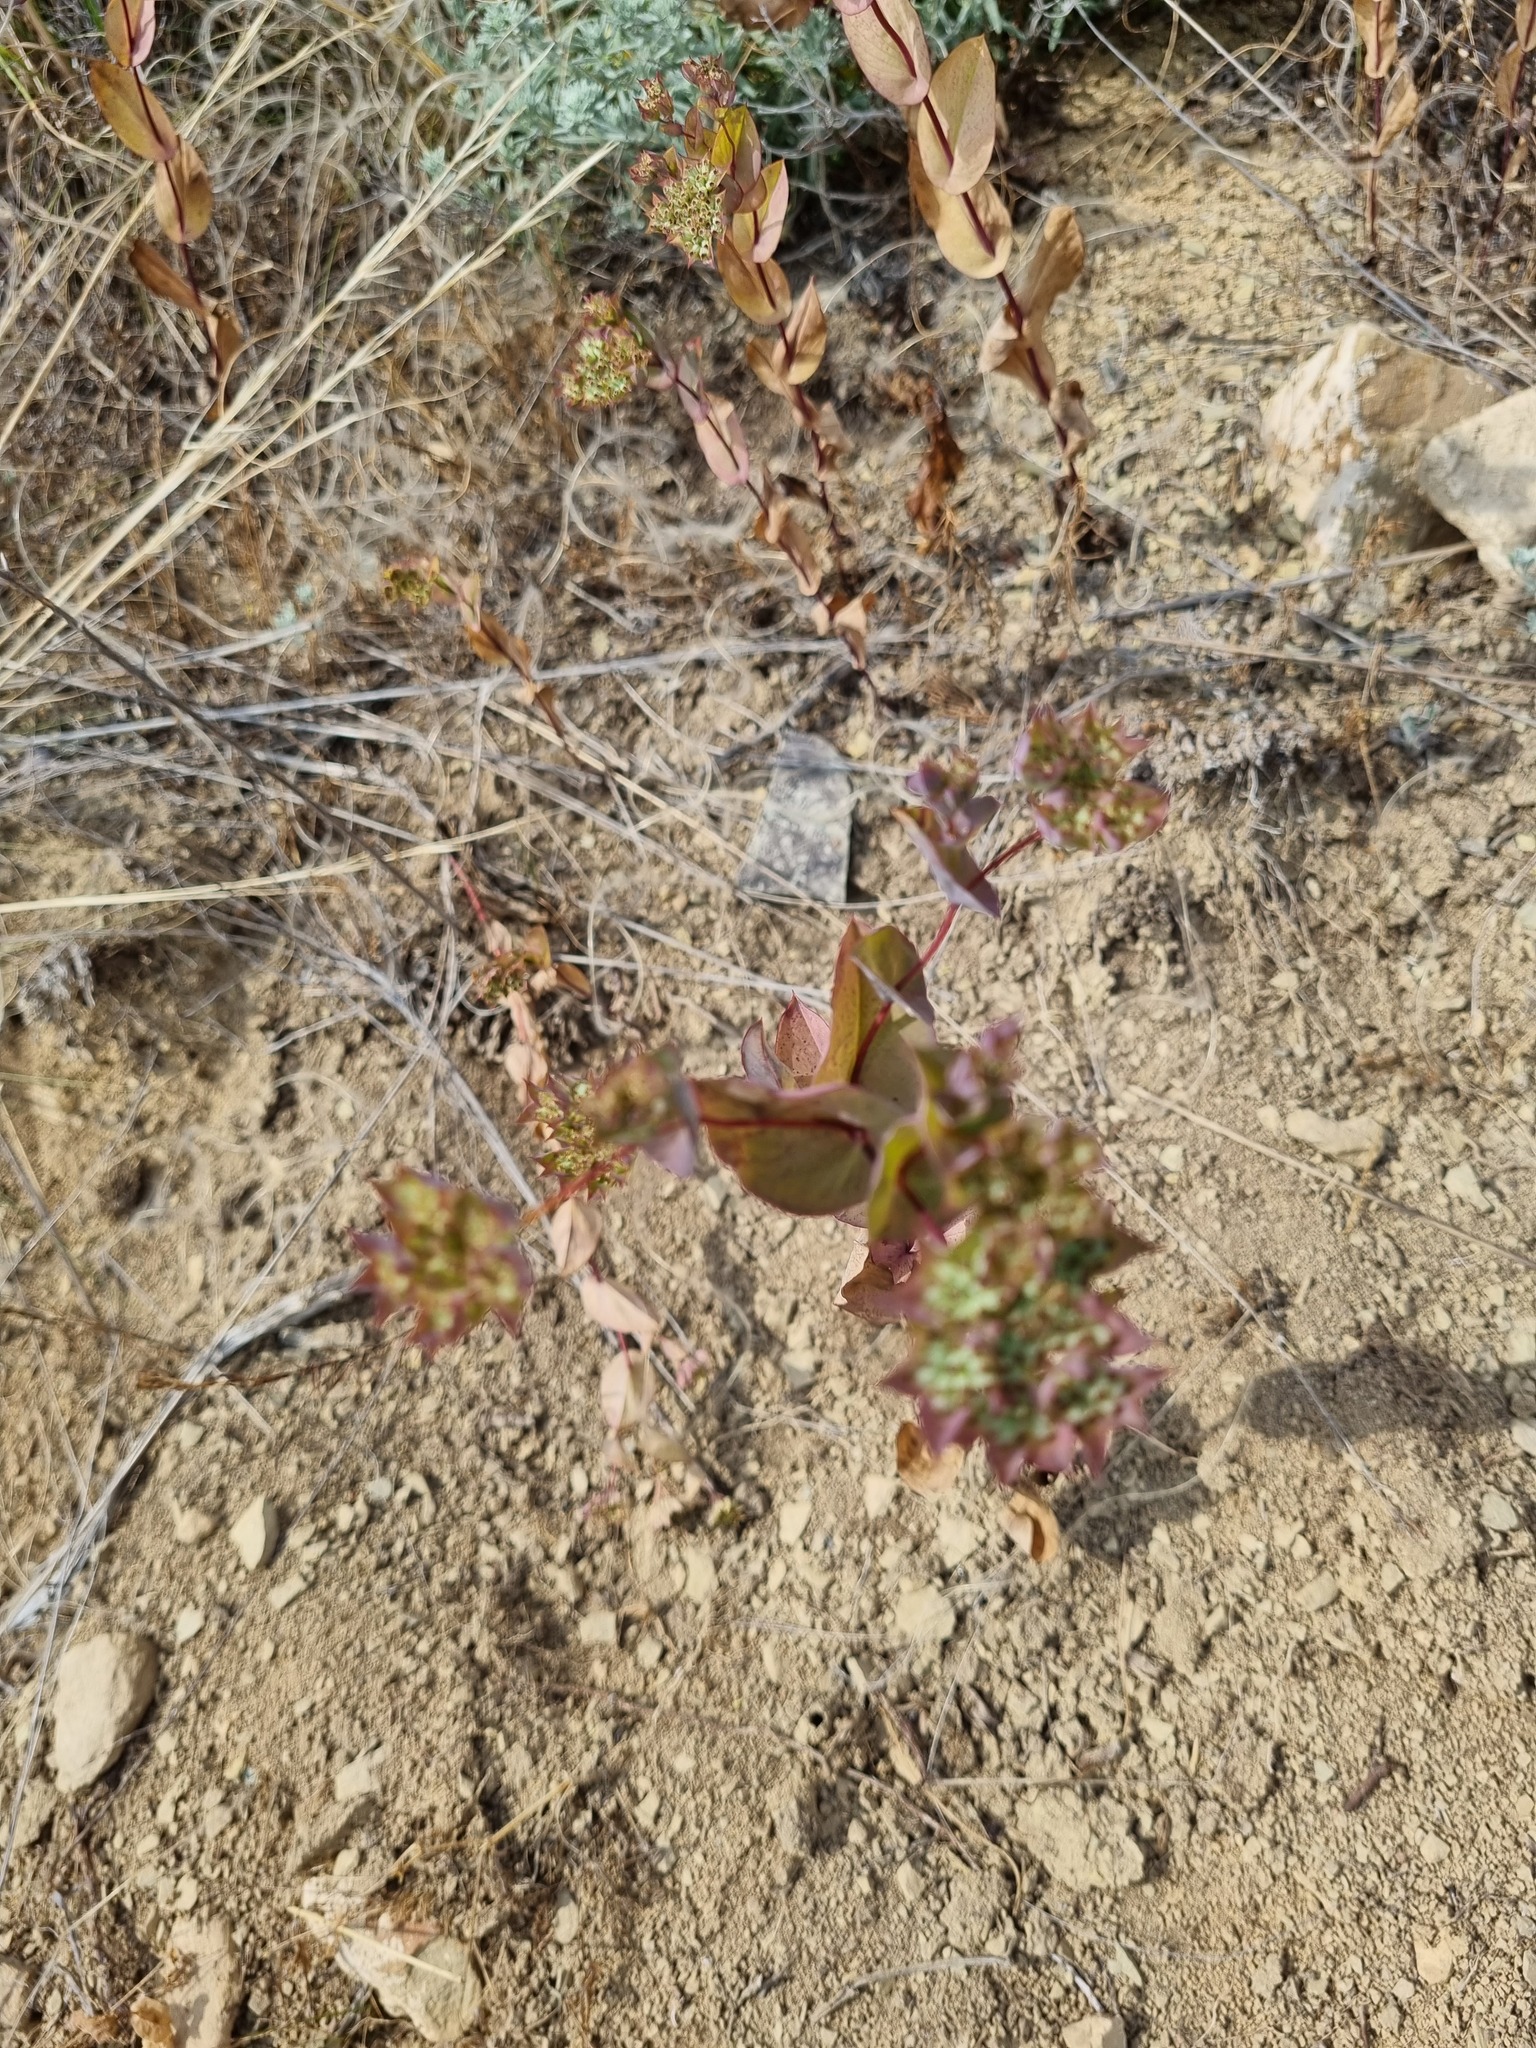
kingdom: Plantae
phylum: Tracheophyta
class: Magnoliopsida
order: Apiales
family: Apiaceae
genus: Bupleurum
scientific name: Bupleurum rotundifolium
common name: Thorow-wax
